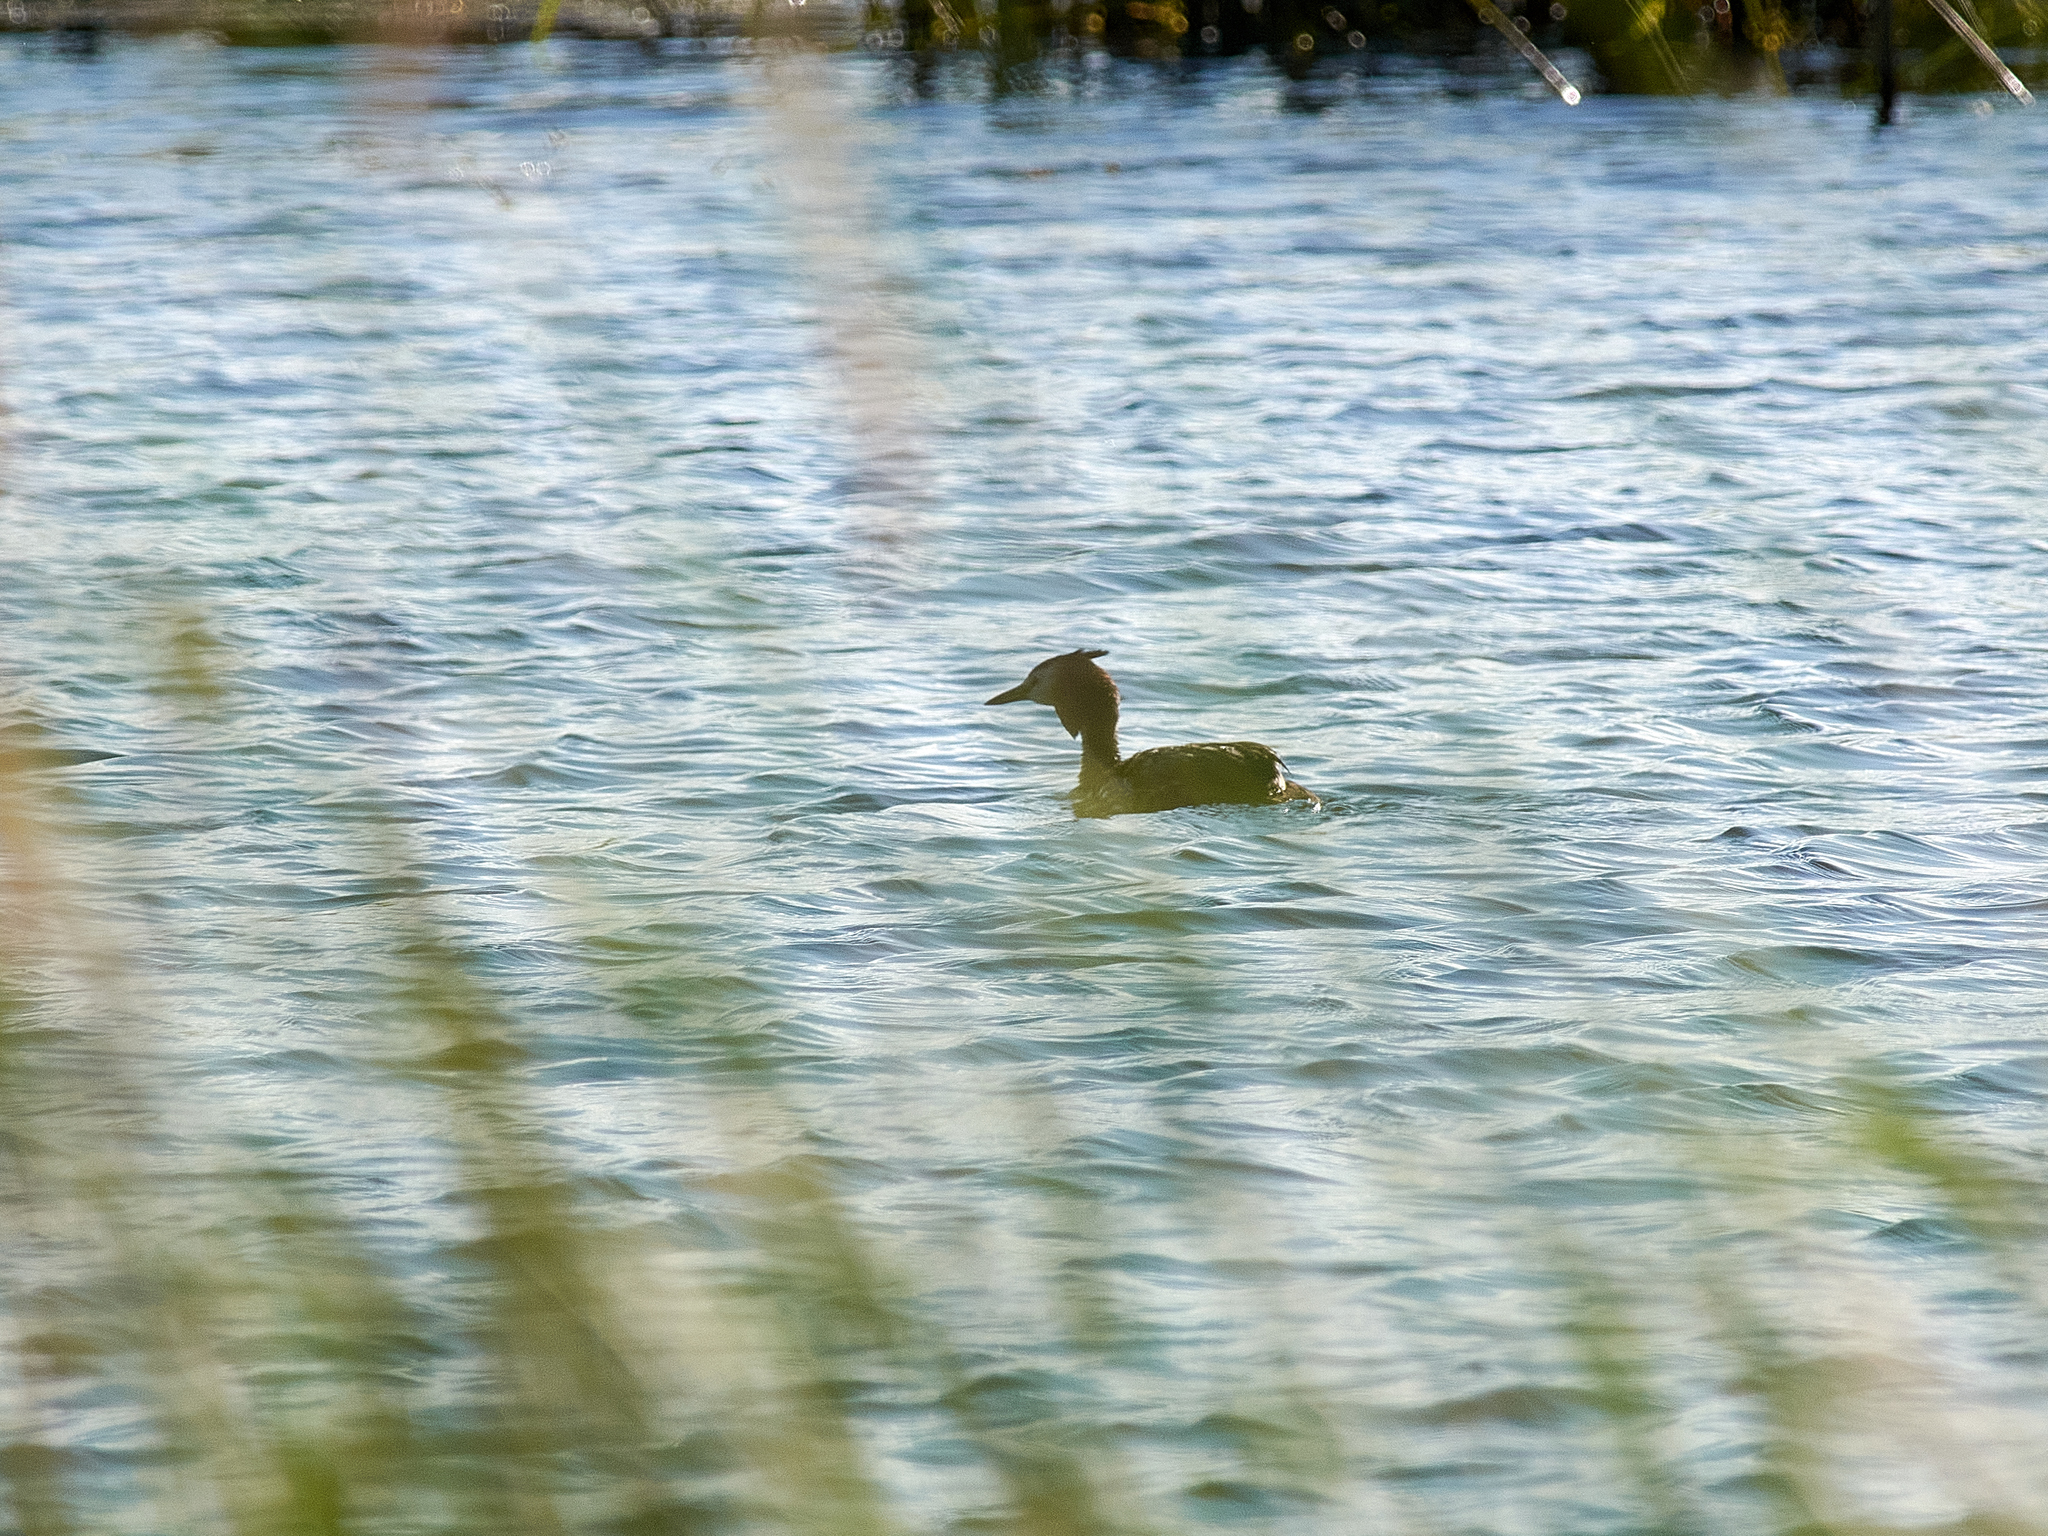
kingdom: Animalia
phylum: Chordata
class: Aves
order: Podicipediformes
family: Podicipedidae
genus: Podiceps
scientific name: Podiceps cristatus
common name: Great crested grebe
